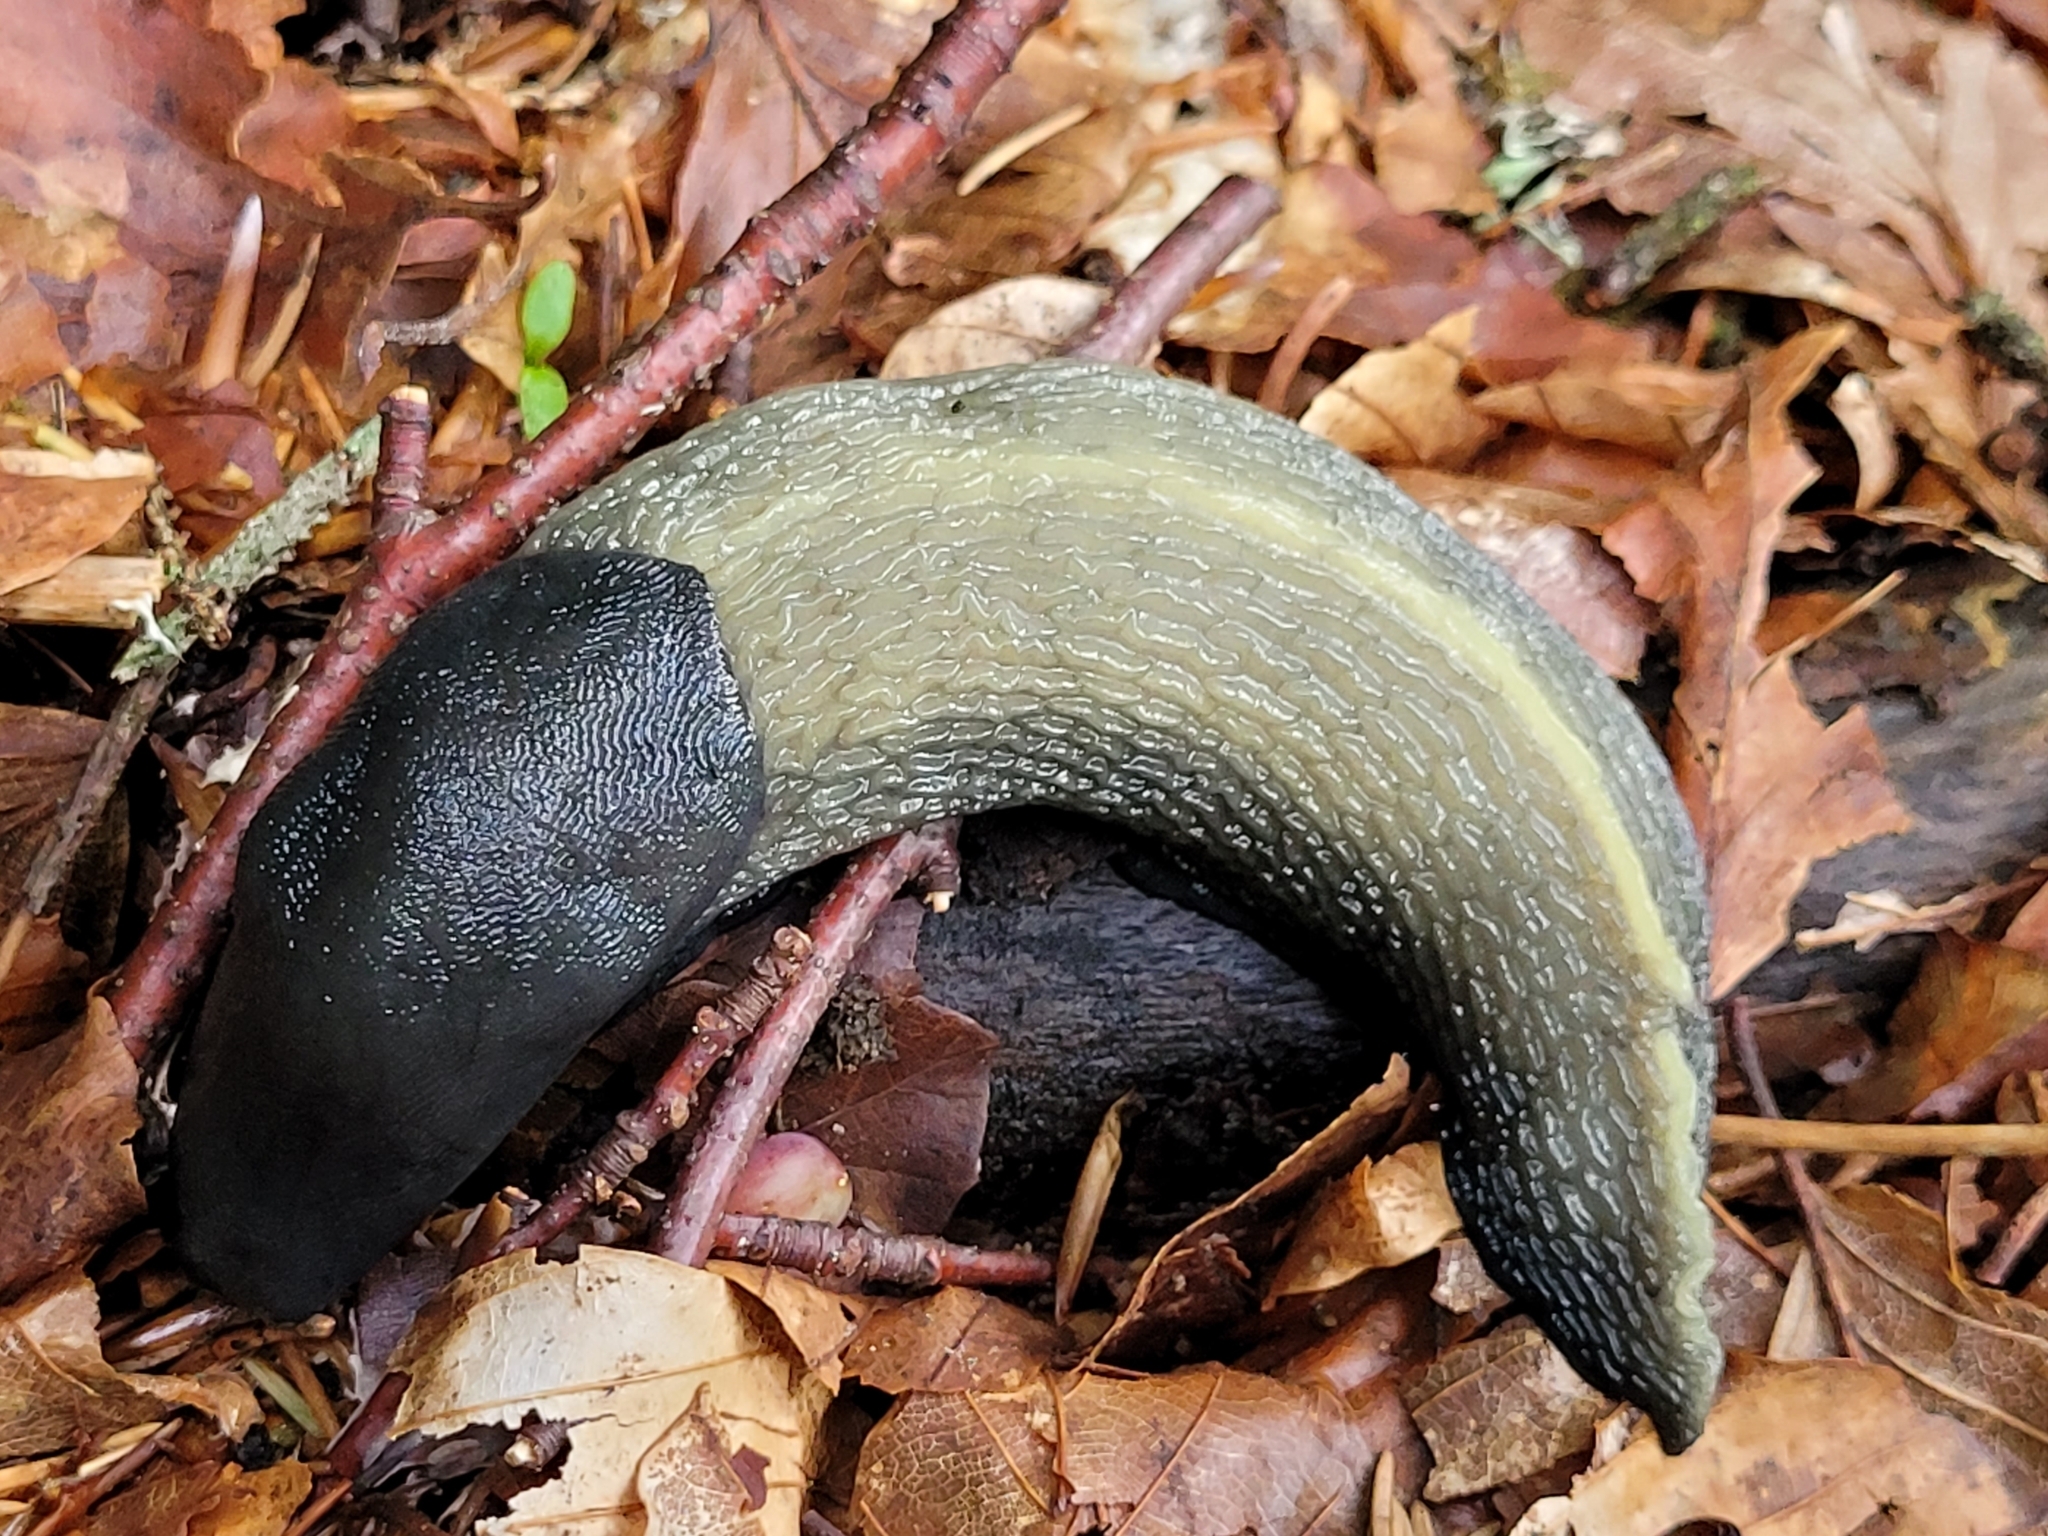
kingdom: Animalia
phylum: Mollusca
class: Gastropoda
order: Stylommatophora
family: Limacidae
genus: Limax
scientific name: Limax cinereoniger
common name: Ash-black slug
